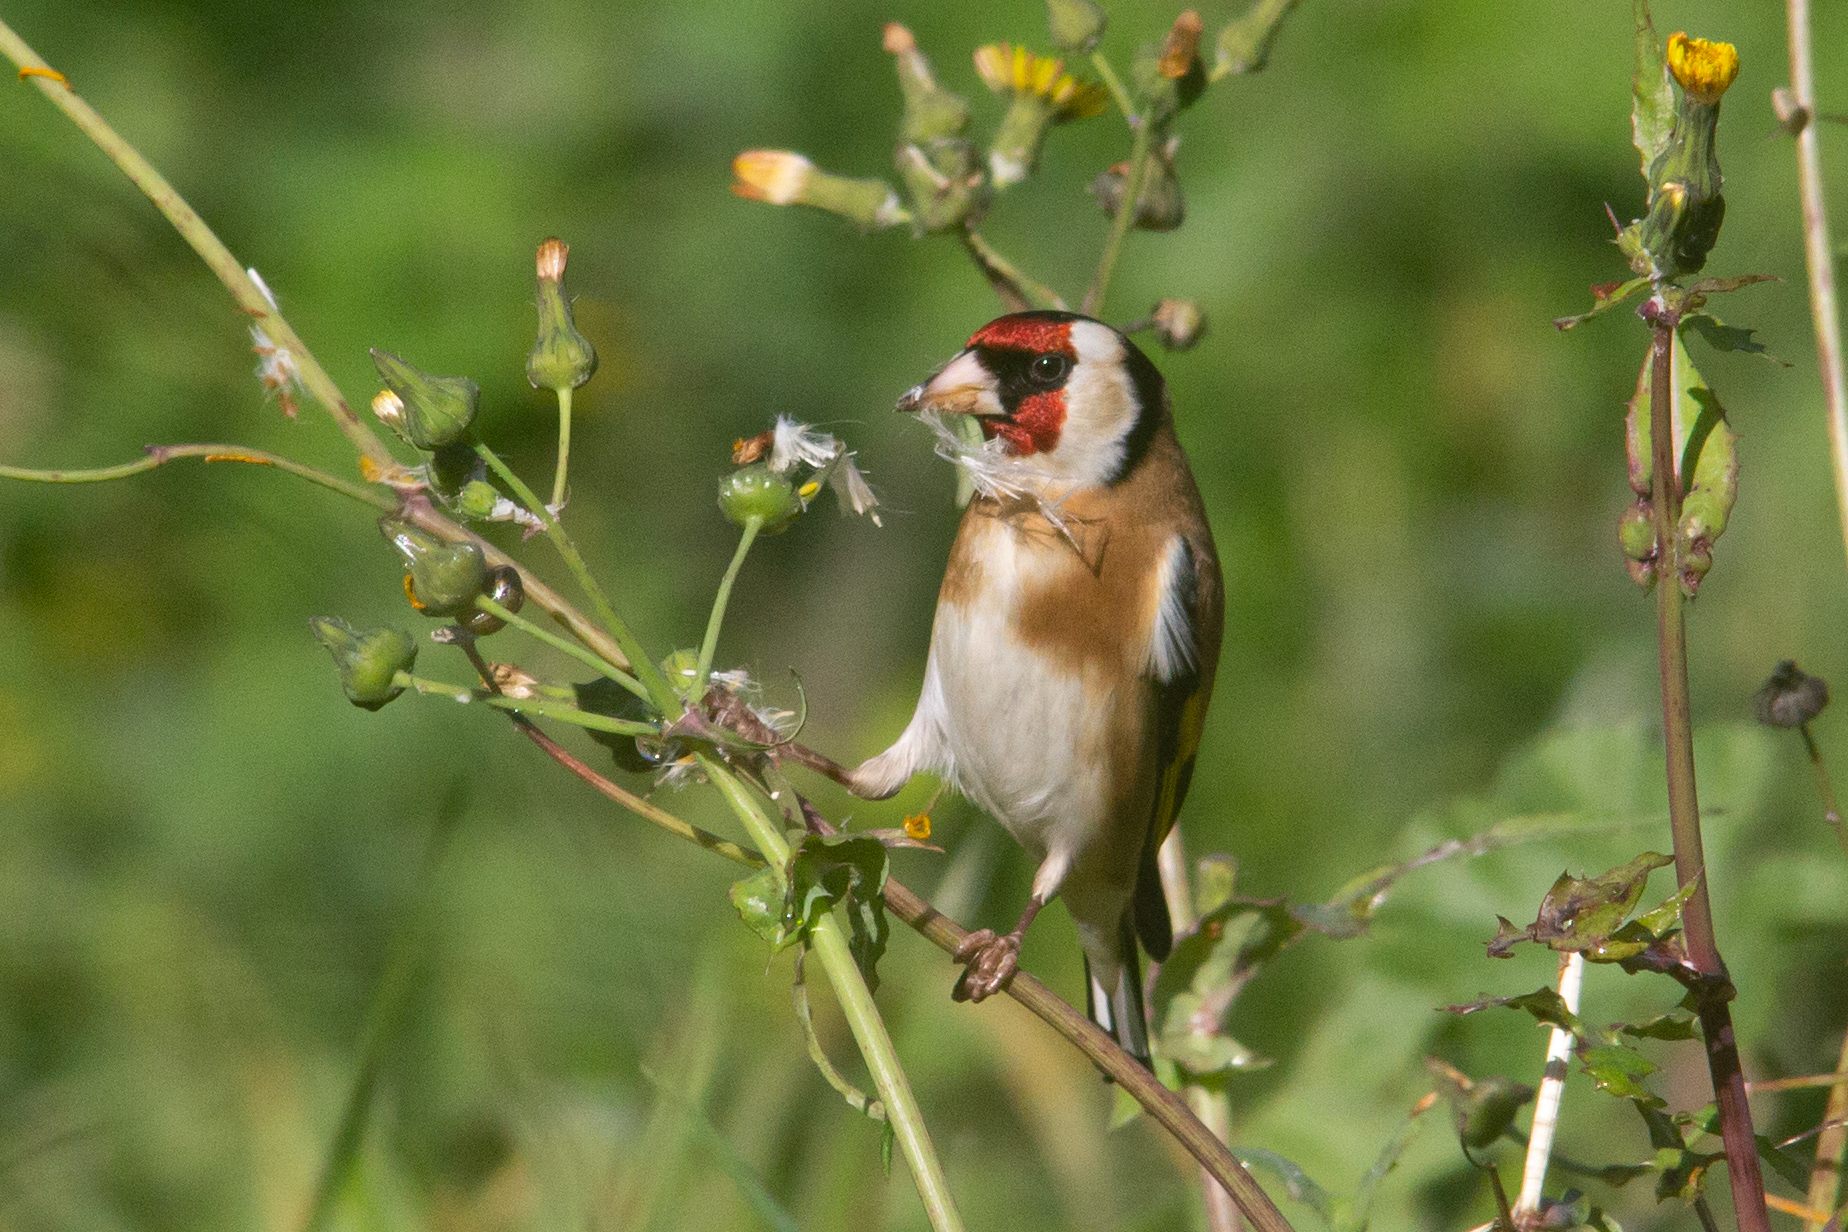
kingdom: Animalia
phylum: Chordata
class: Aves
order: Passeriformes
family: Fringillidae
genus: Carduelis
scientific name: Carduelis carduelis
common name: European goldfinch
